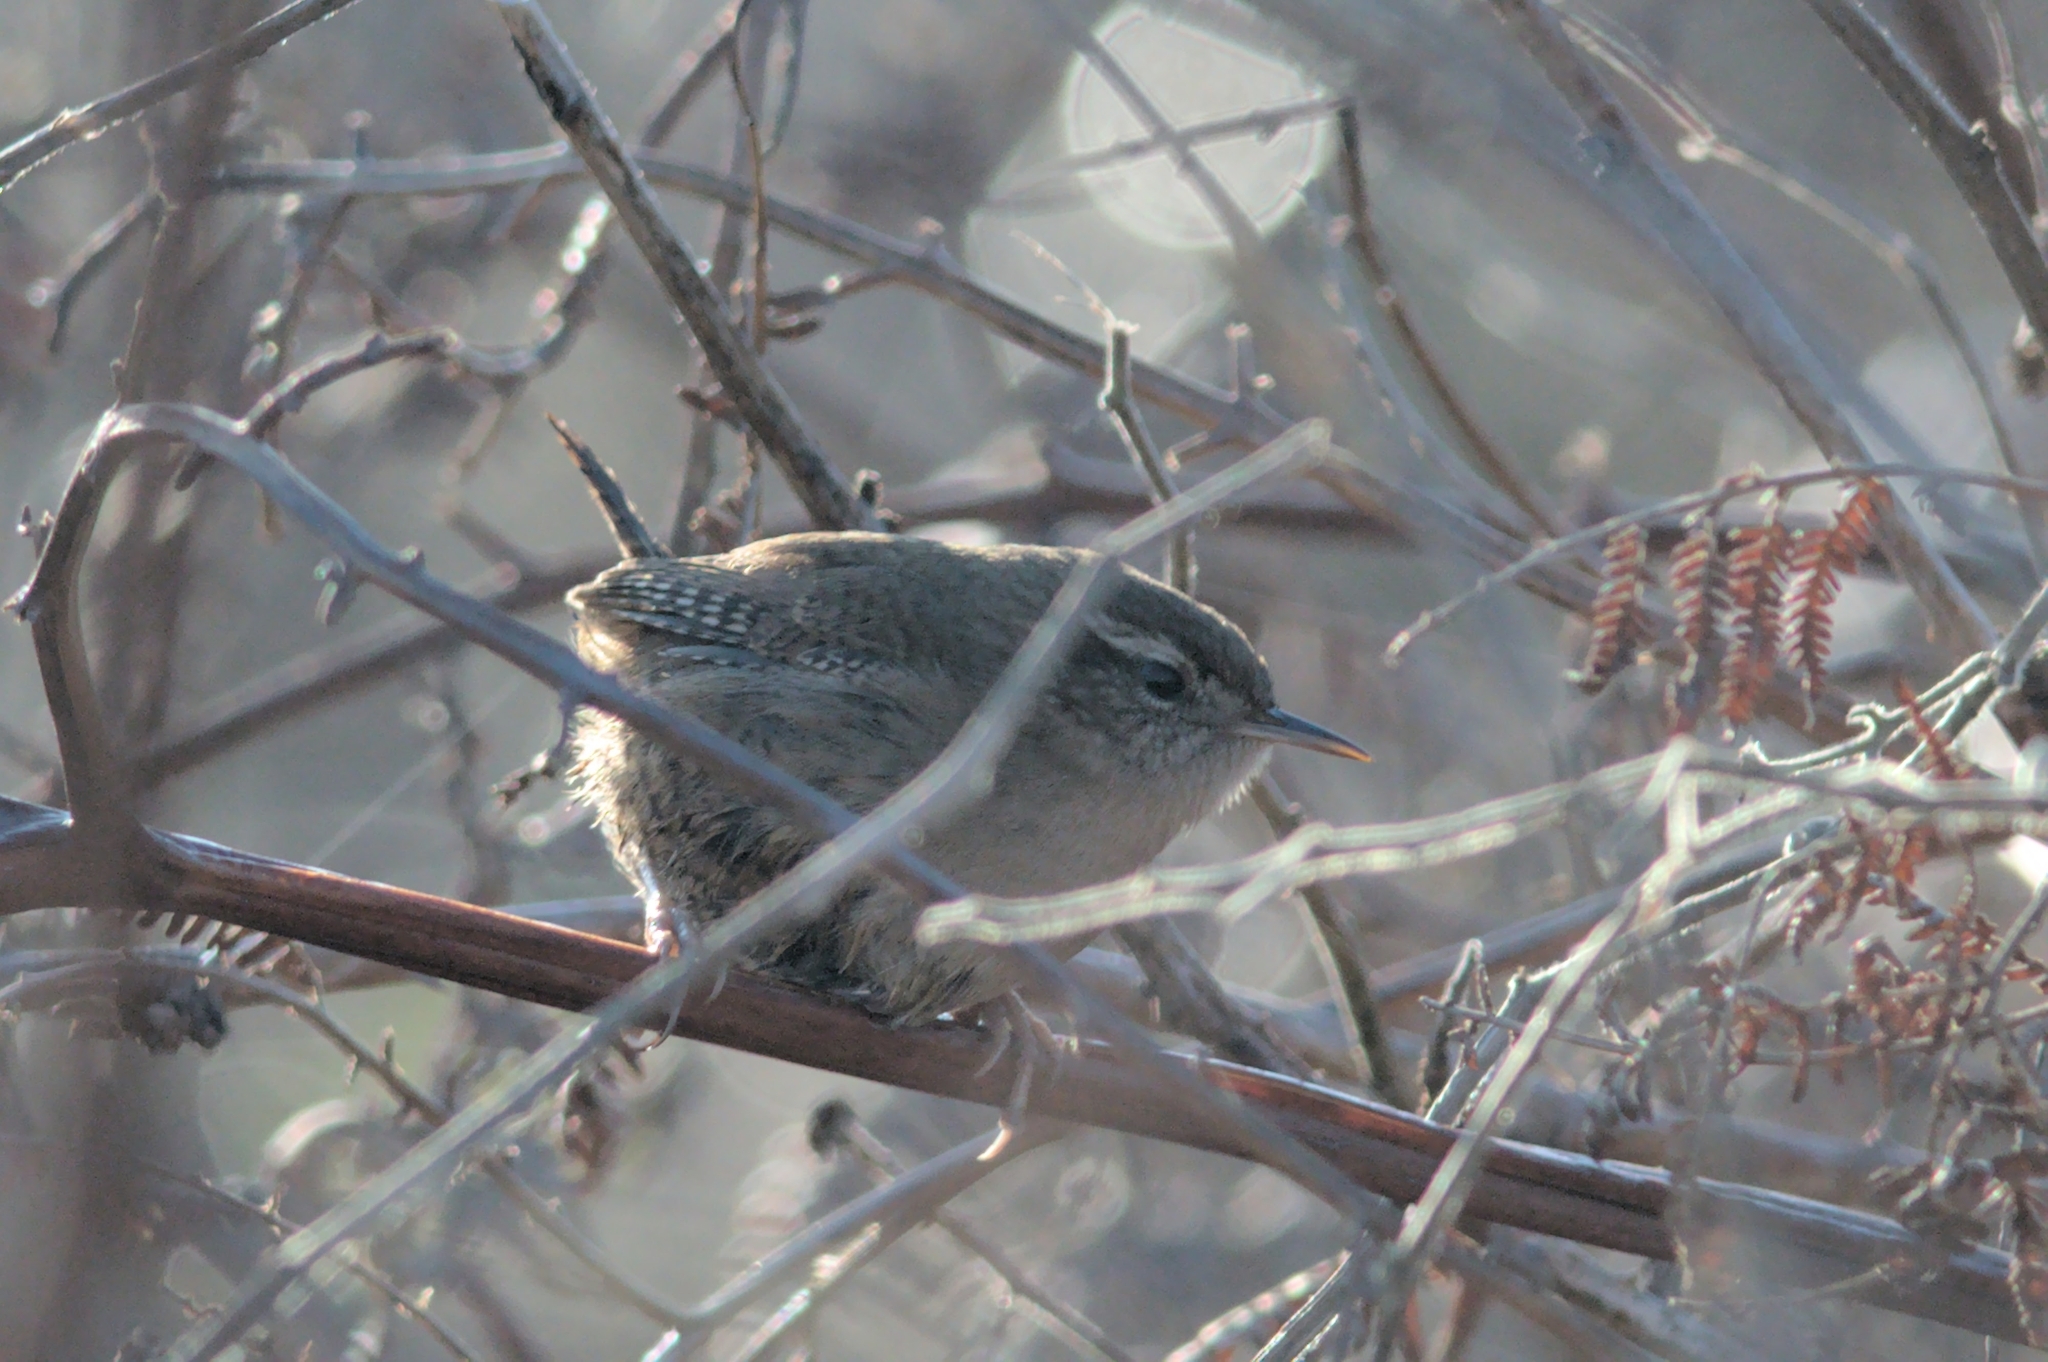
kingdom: Animalia
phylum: Chordata
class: Aves
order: Passeriformes
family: Troglodytidae
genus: Troglodytes
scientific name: Troglodytes troglodytes
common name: Eurasian wren
